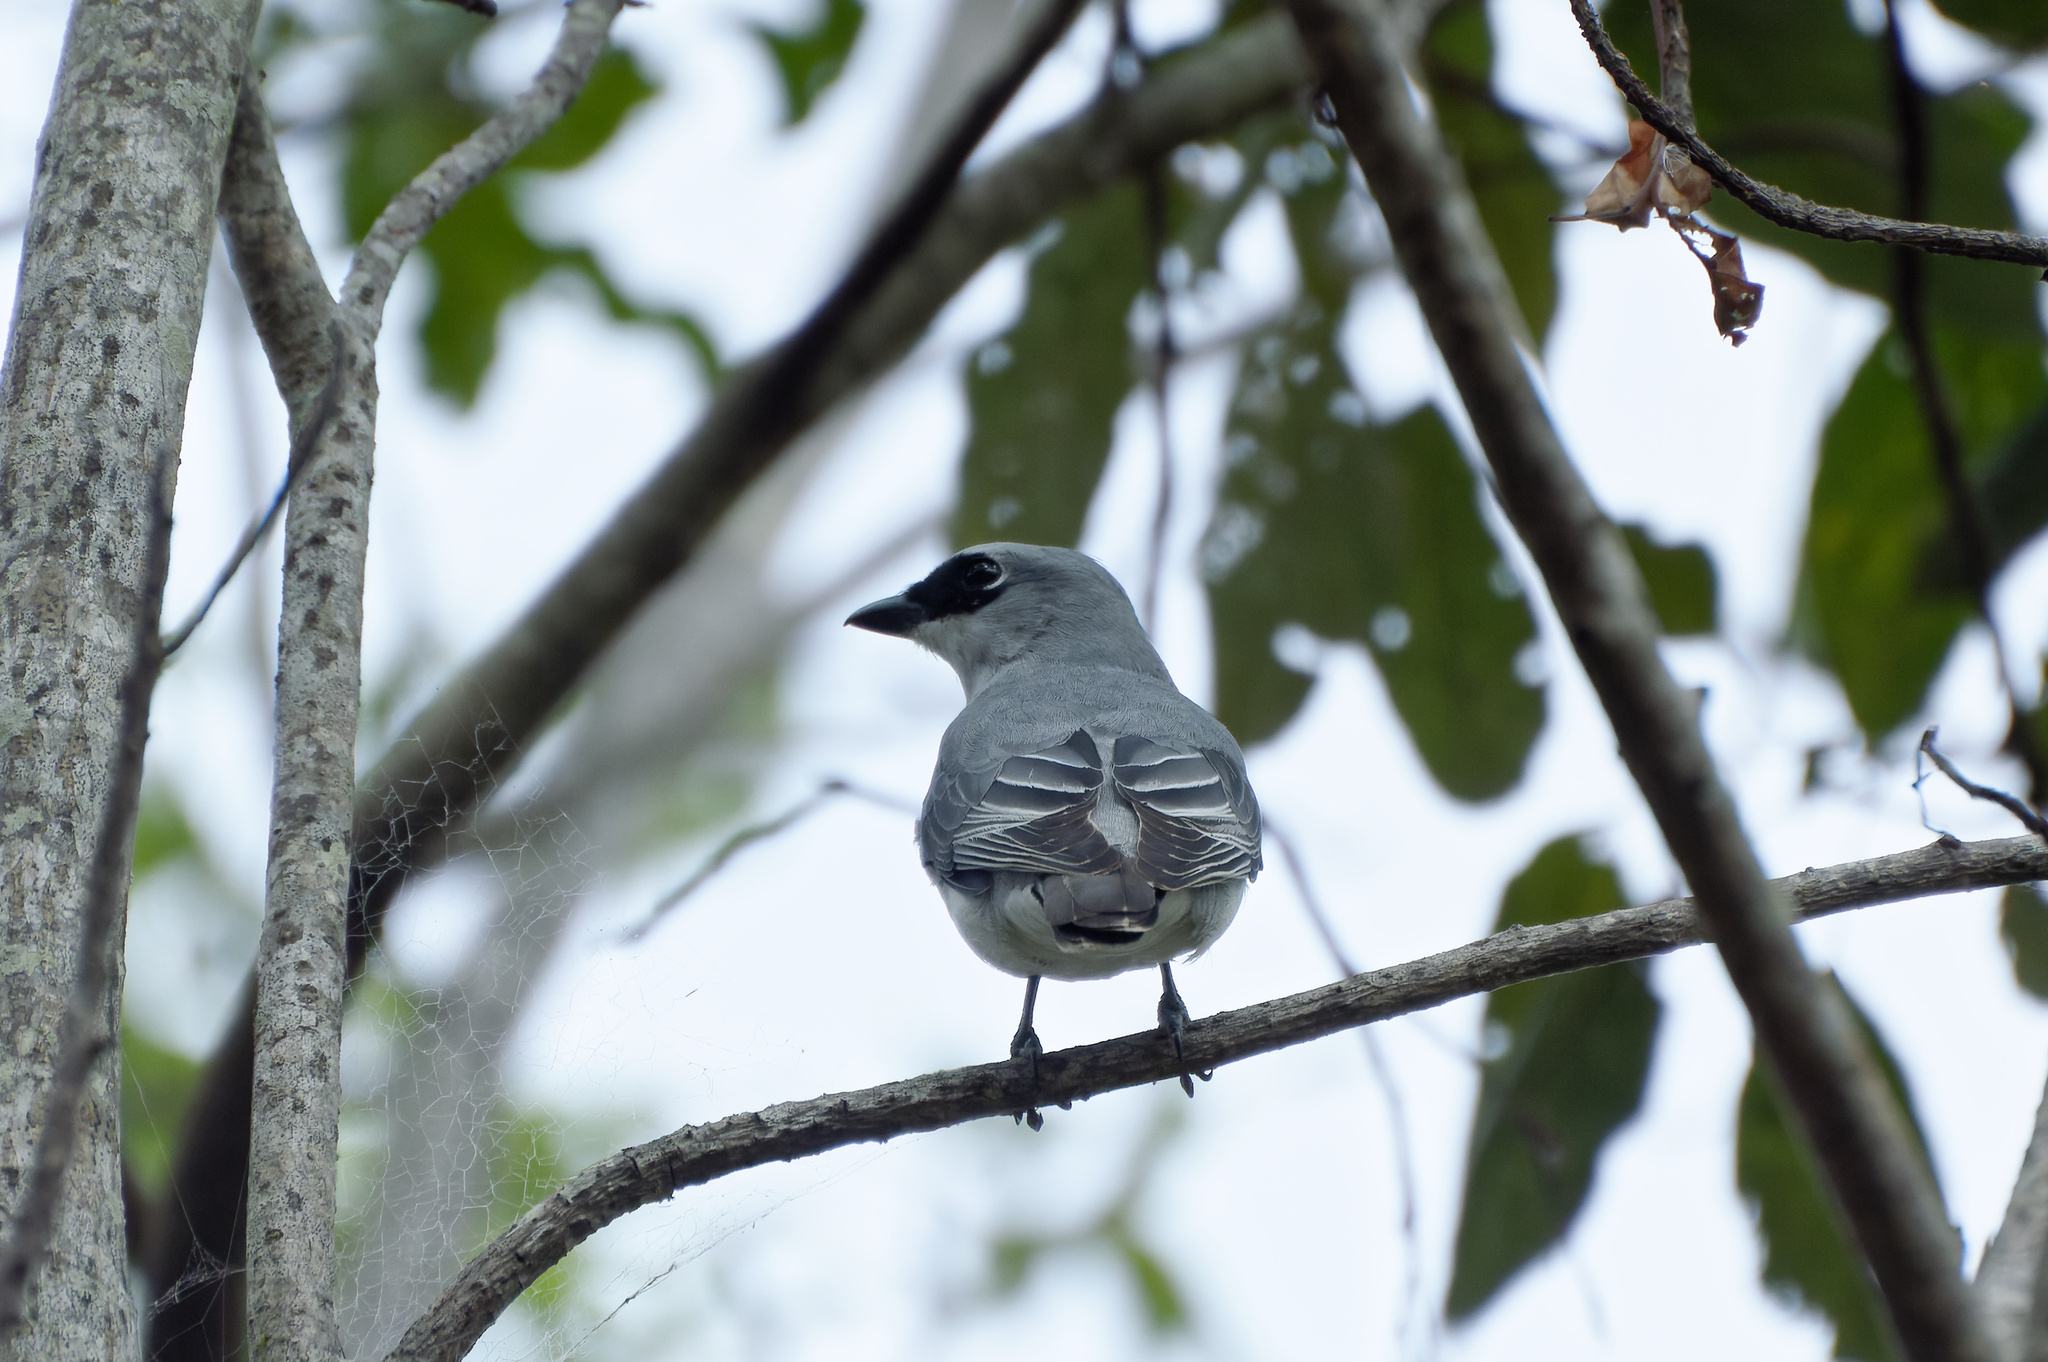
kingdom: Animalia
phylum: Chordata
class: Aves
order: Passeriformes
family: Campephagidae
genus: Coracina
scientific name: Coracina papuensis
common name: White-bellied cuckooshrike
